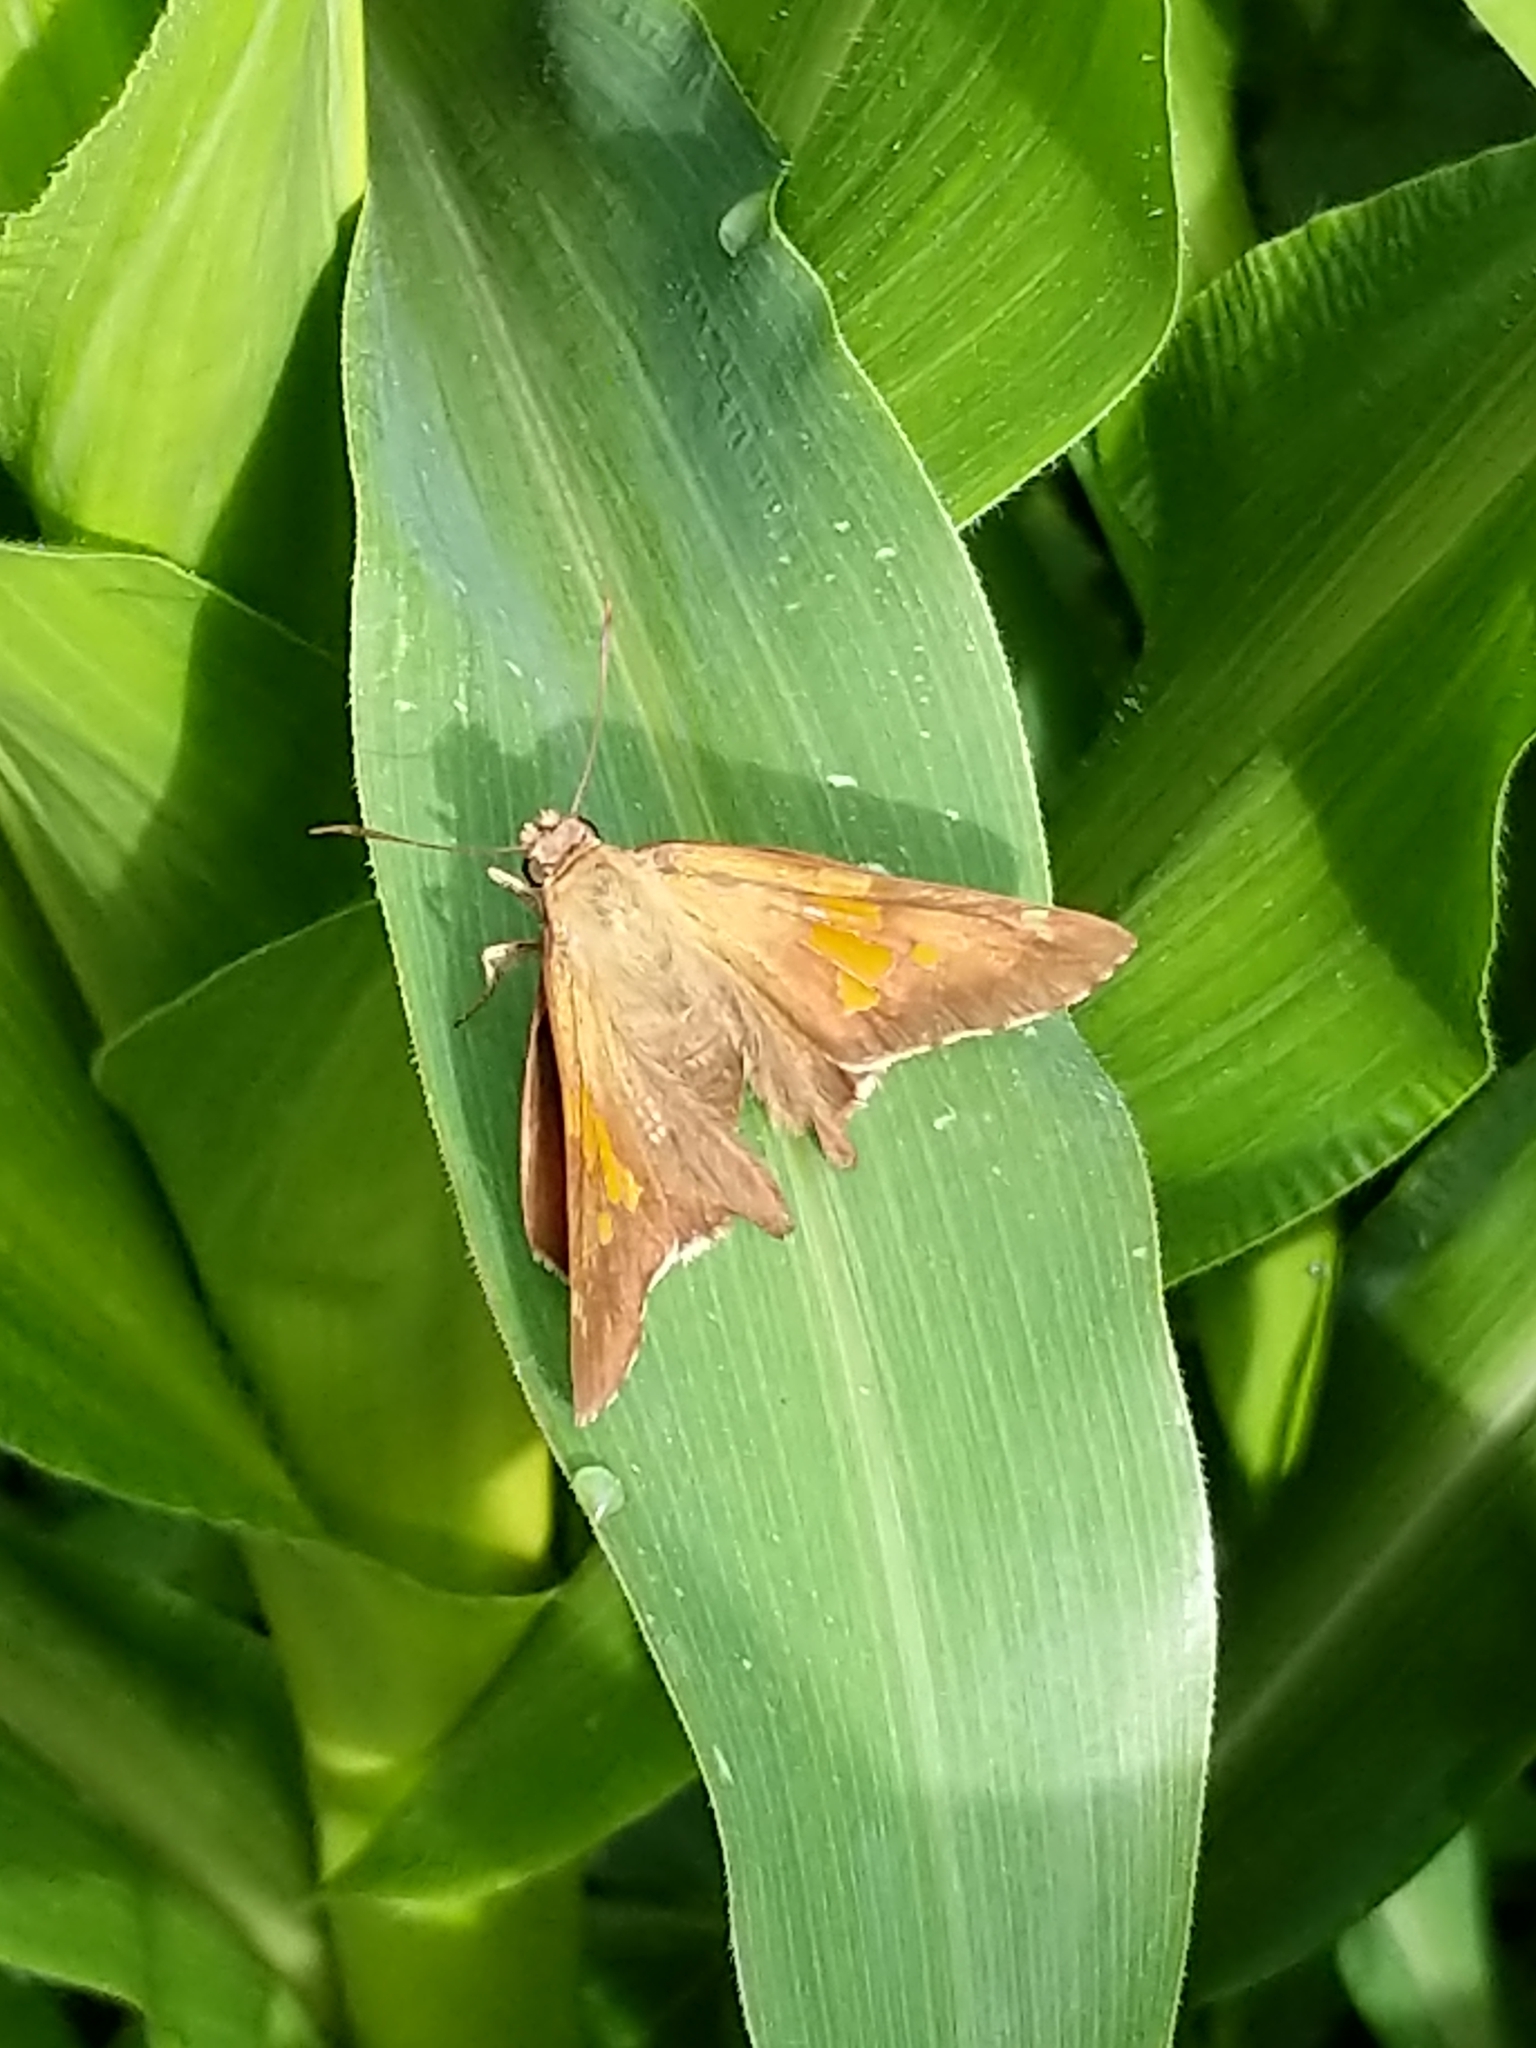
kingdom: Animalia
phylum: Arthropoda
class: Insecta
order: Lepidoptera
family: Hesperiidae
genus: Epargyreus
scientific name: Epargyreus clarus
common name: Silver-spotted skipper
